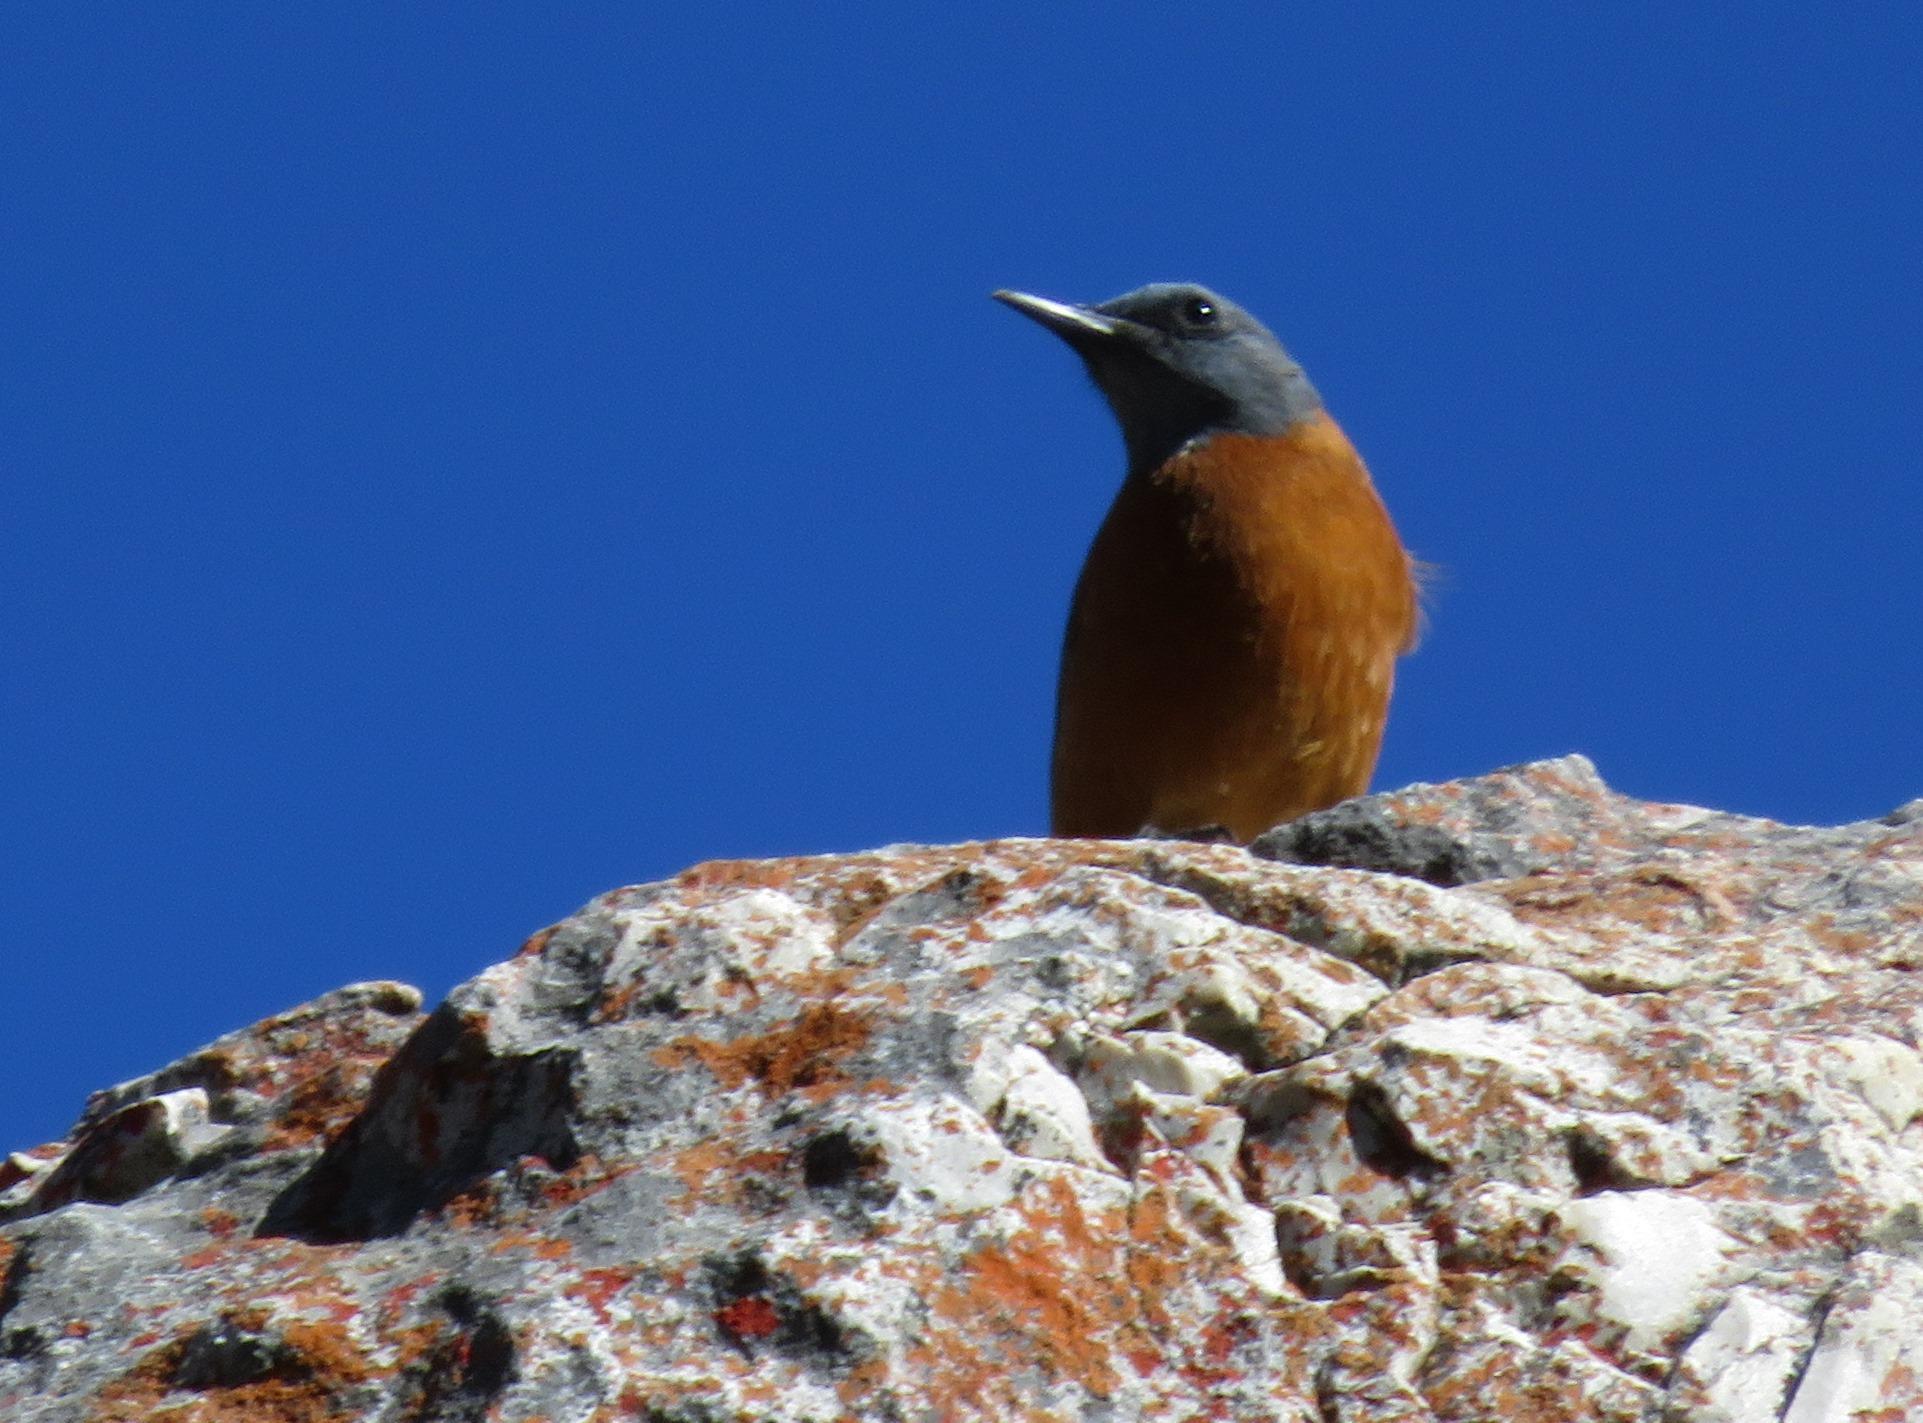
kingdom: Animalia
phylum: Chordata
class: Aves
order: Passeriformes
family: Muscicapidae
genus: Monticola
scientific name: Monticola rupestris
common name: Cape rock thrush
